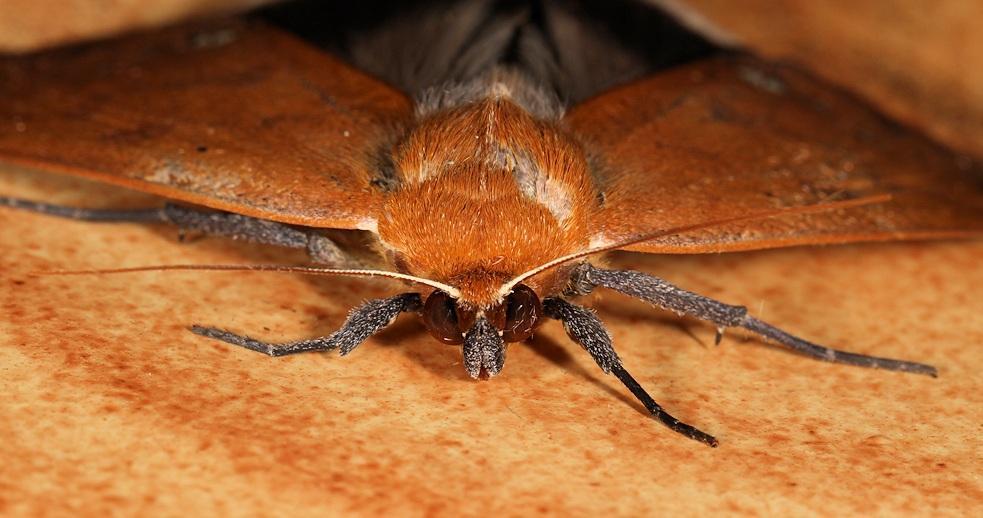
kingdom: Animalia
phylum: Arthropoda
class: Insecta
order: Lepidoptera
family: Erebidae
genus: Ophiusa
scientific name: Ophiusa tumiditermina
